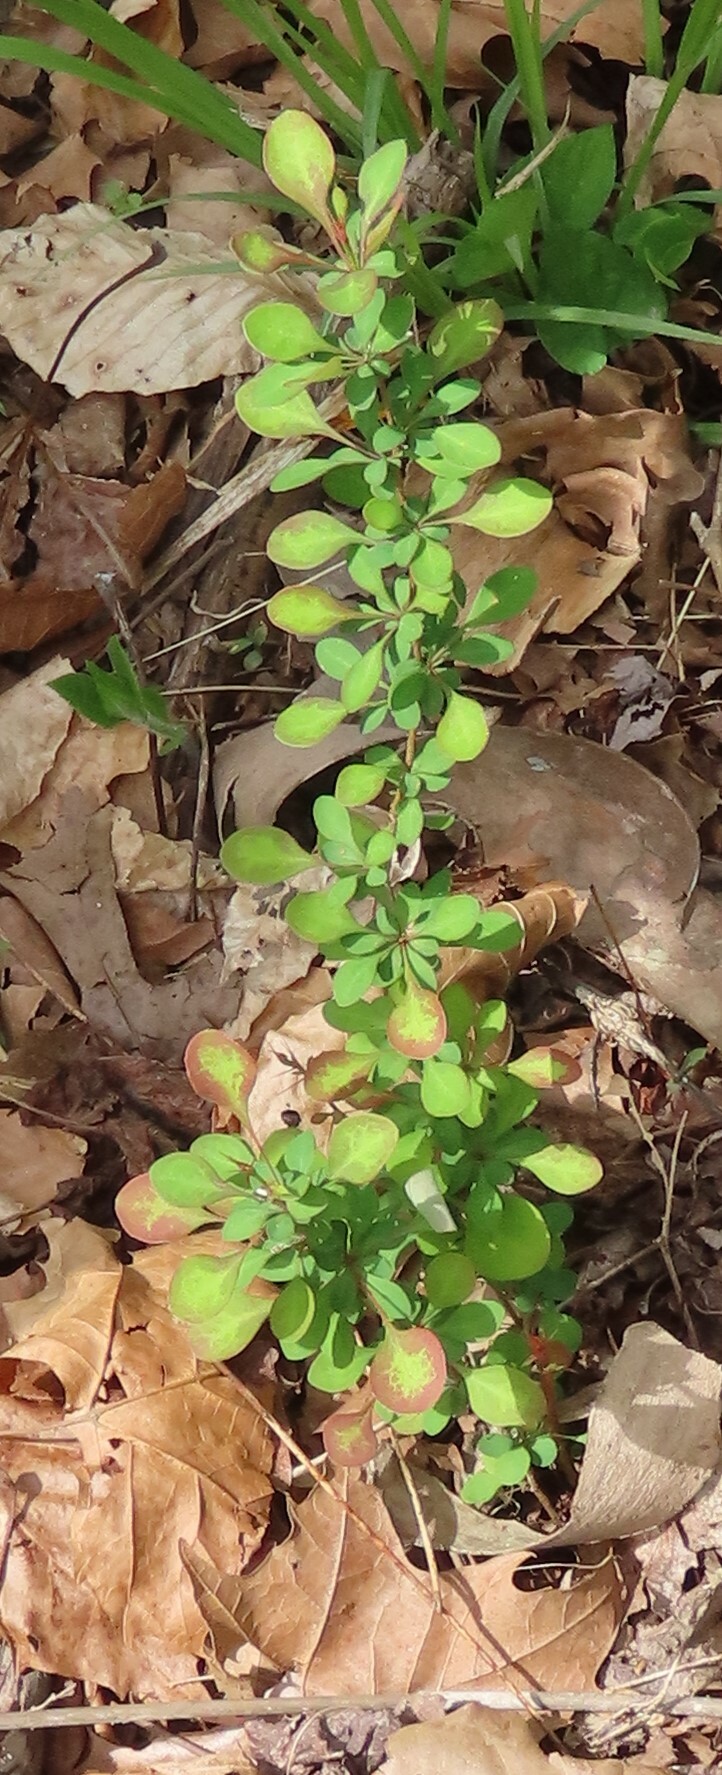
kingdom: Plantae
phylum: Tracheophyta
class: Magnoliopsida
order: Ranunculales
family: Berberidaceae
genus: Berberis
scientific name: Berberis thunbergii
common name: Japanese barberry
